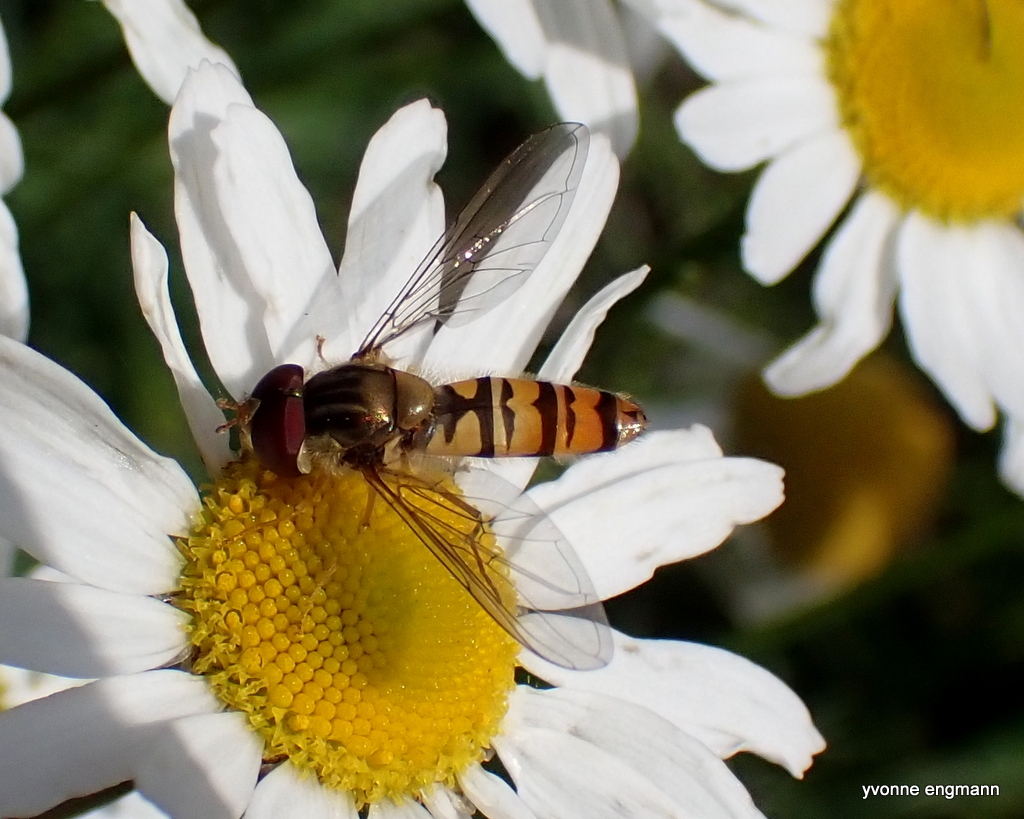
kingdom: Animalia
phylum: Arthropoda
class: Insecta
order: Diptera
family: Syrphidae
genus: Episyrphus
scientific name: Episyrphus balteatus
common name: Marmalade hoverfly
